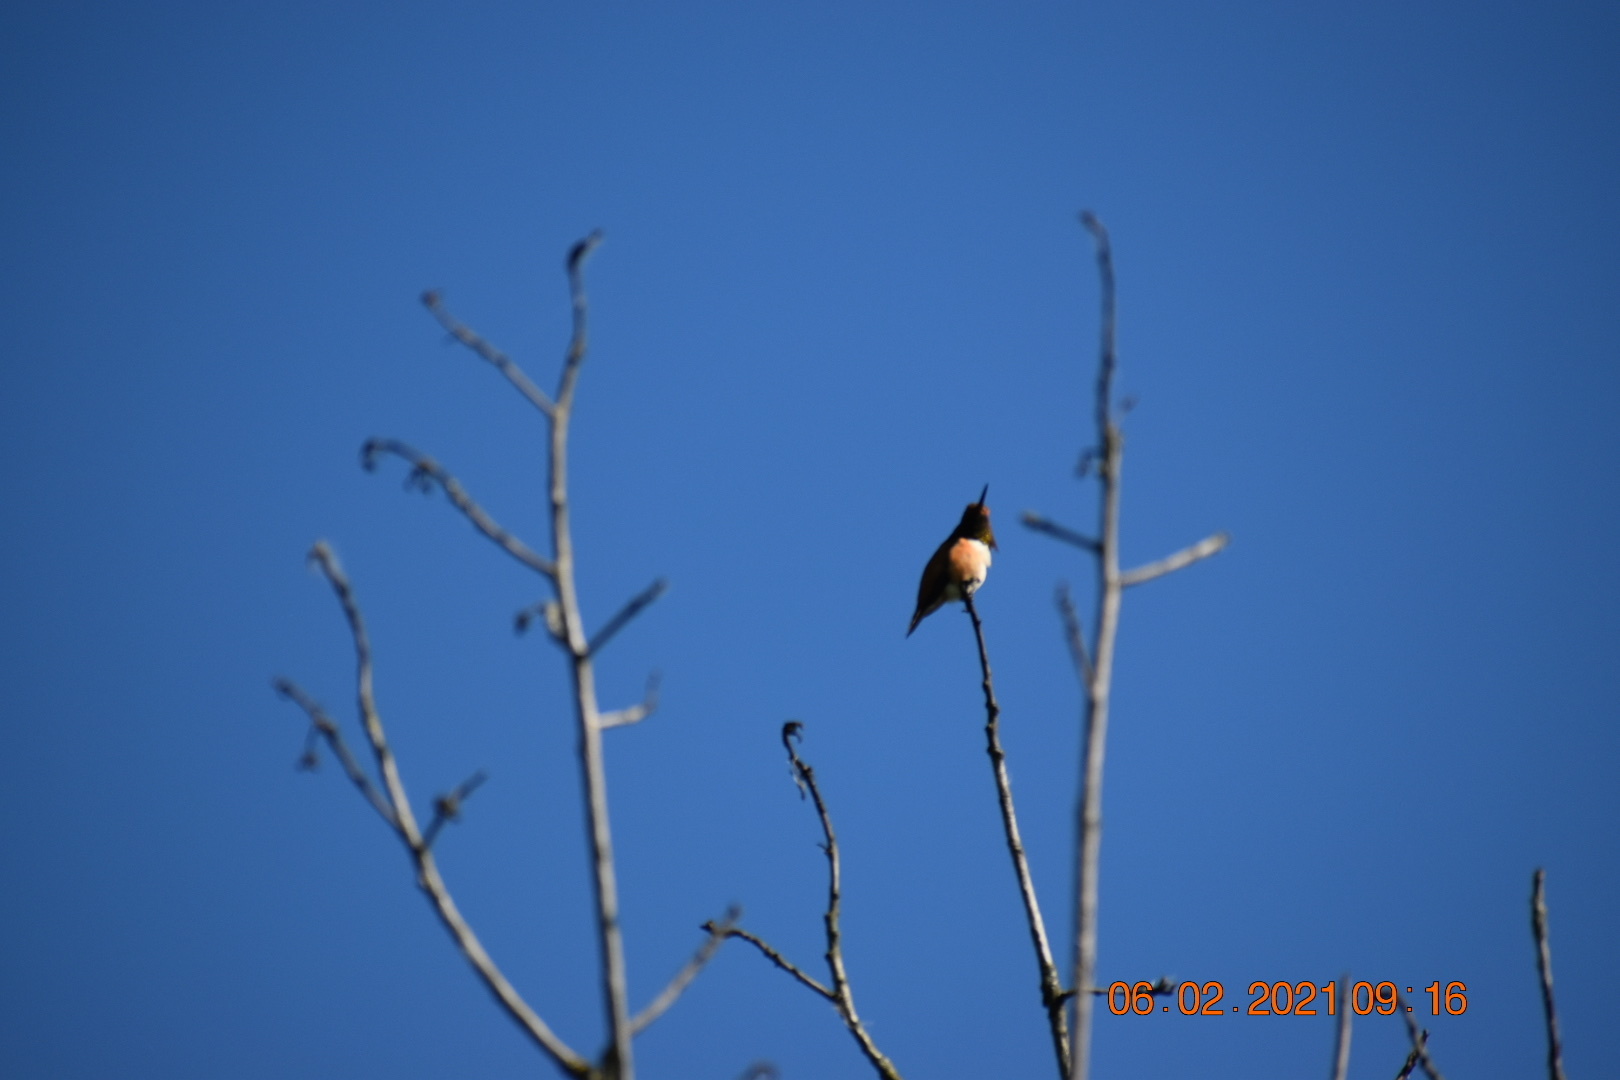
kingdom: Animalia
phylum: Chordata
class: Aves
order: Apodiformes
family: Trochilidae
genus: Selasphorus
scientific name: Selasphorus rufus
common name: Rufous hummingbird
